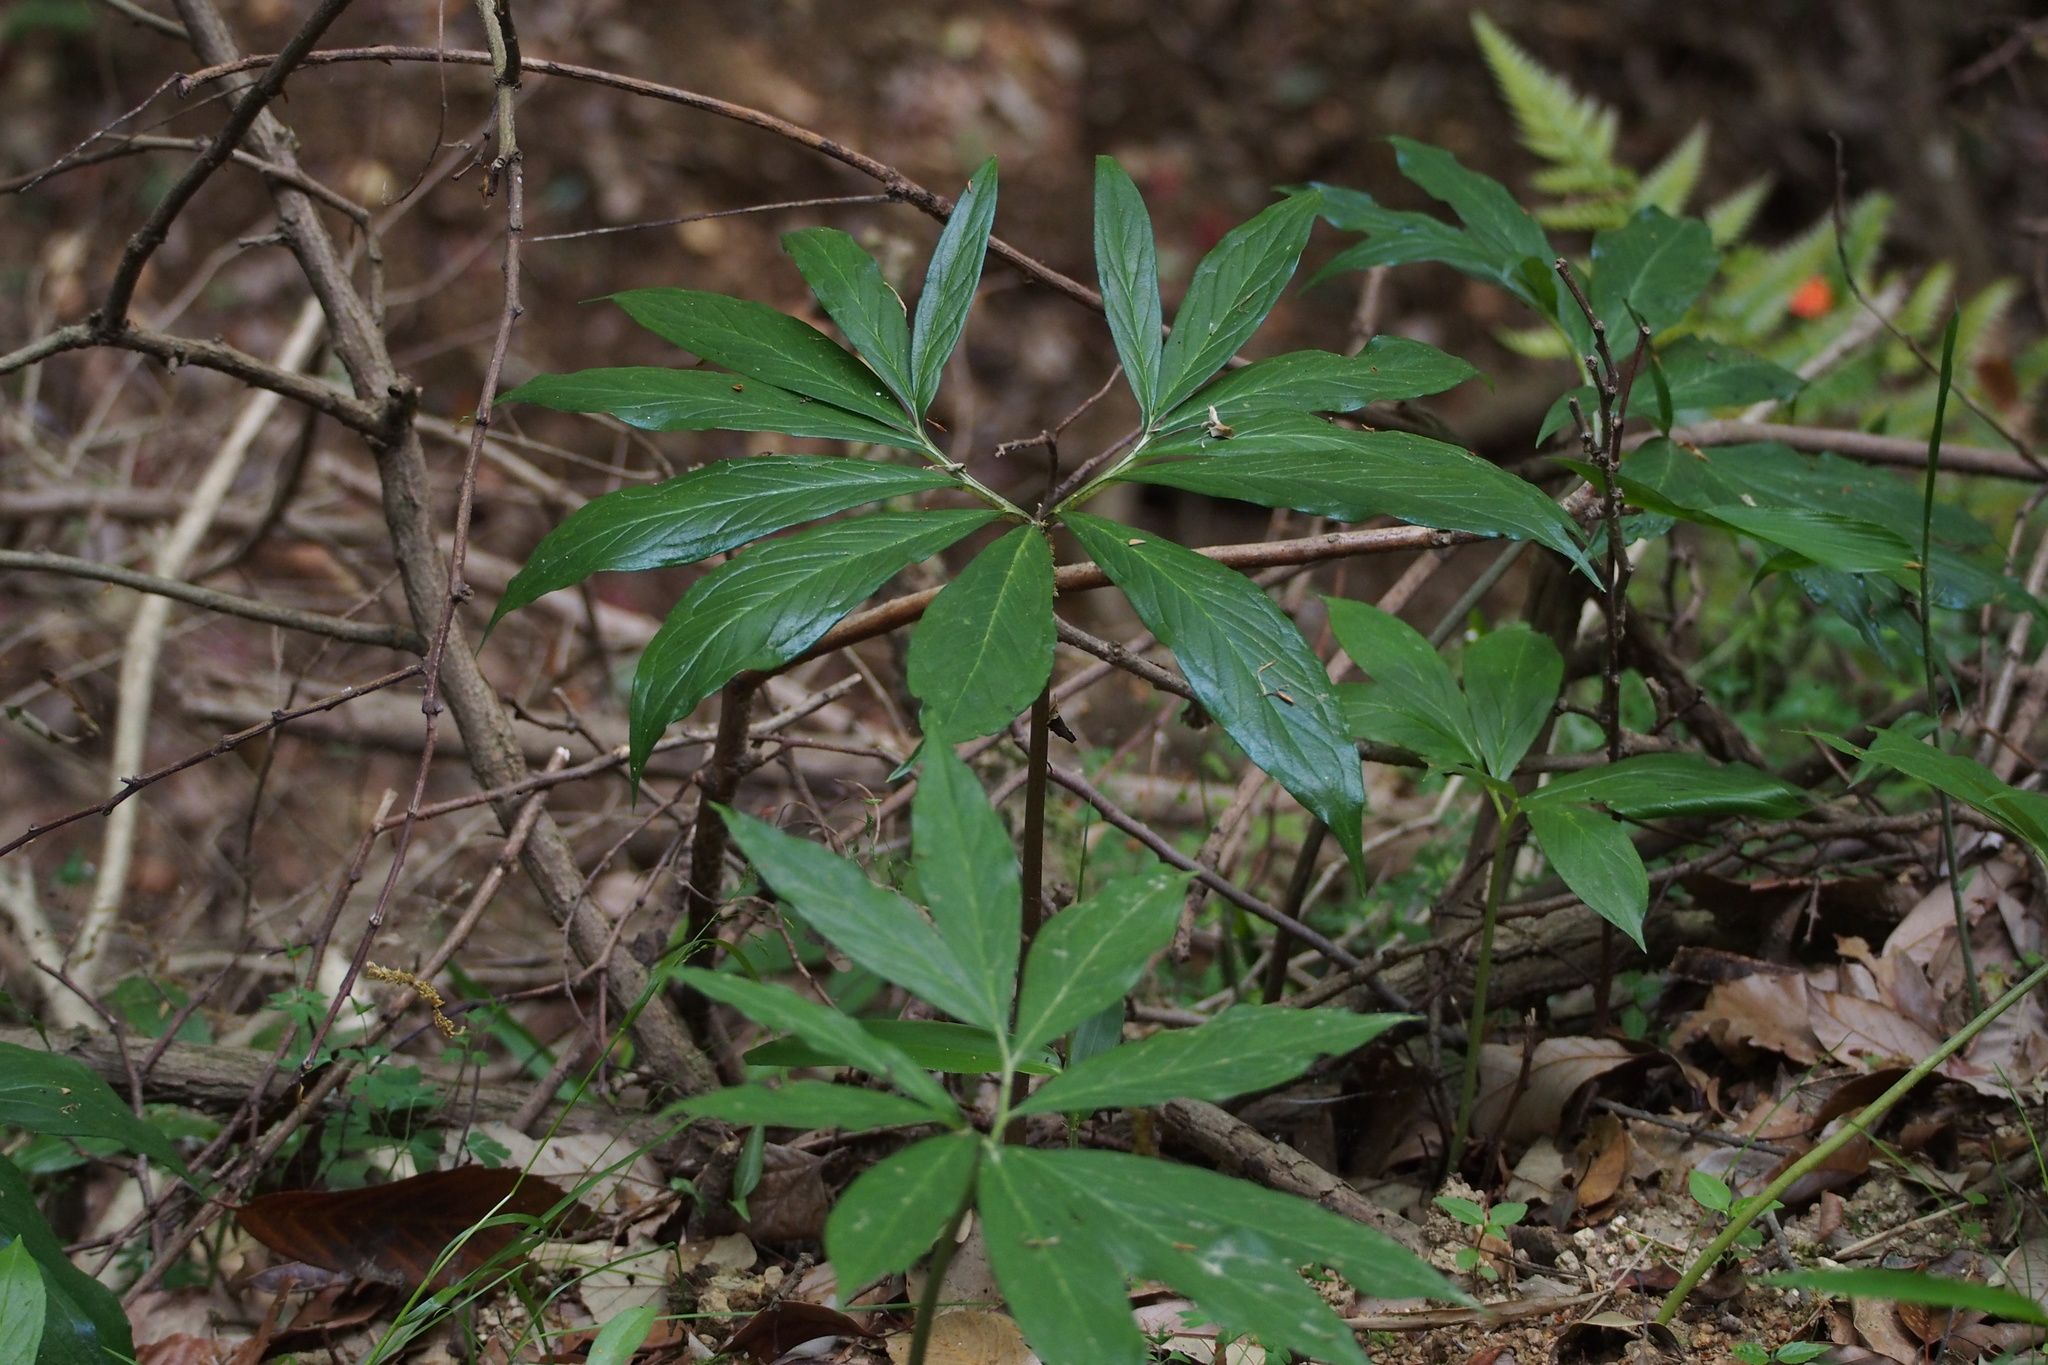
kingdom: Plantae
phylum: Tracheophyta
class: Liliopsida
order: Alismatales
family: Araceae
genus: Arisaema
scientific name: Arisaema thunbergii
